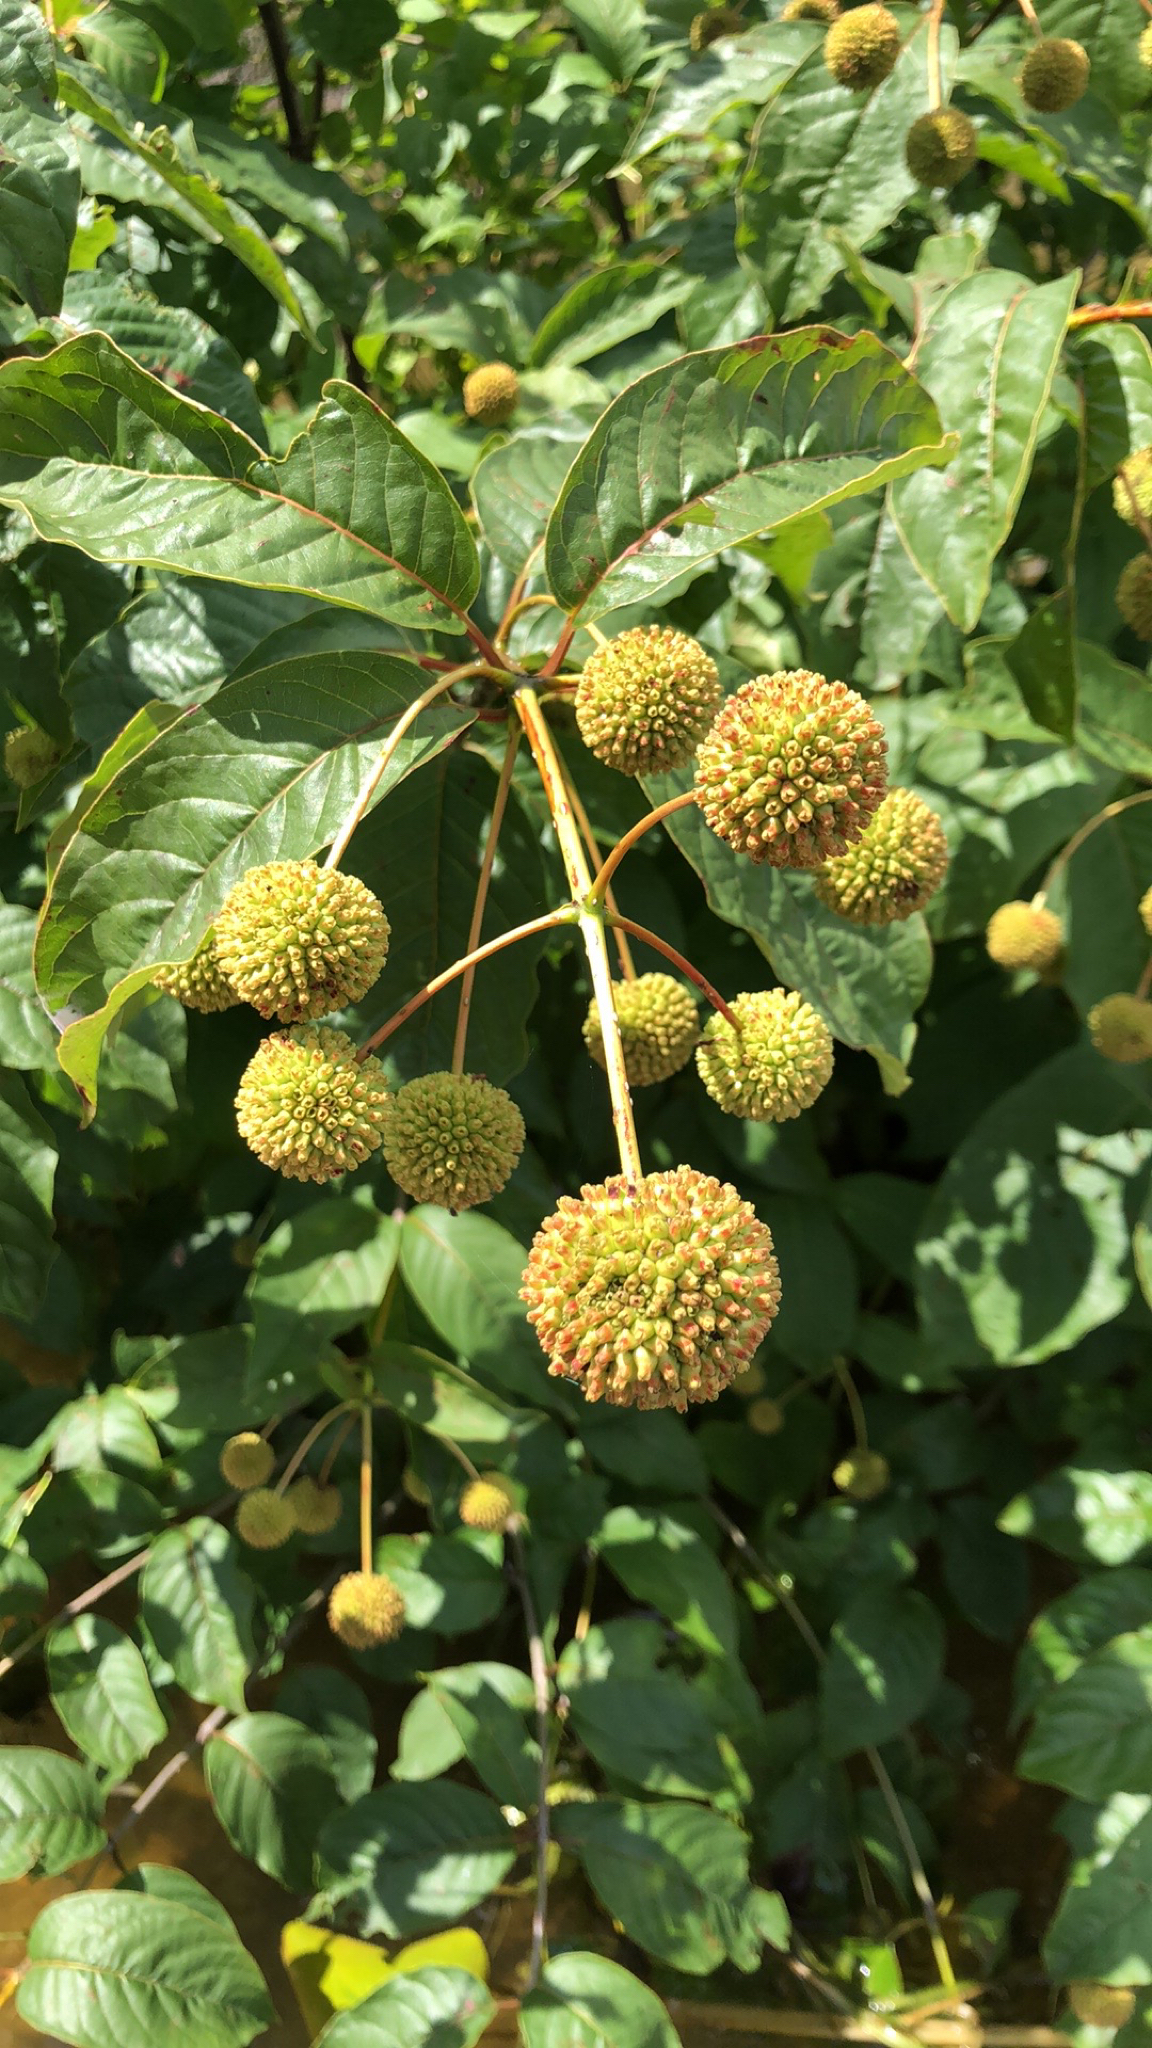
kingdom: Plantae
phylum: Tracheophyta
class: Magnoliopsida
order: Gentianales
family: Rubiaceae
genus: Cephalanthus
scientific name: Cephalanthus occidentalis
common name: Button-willow
